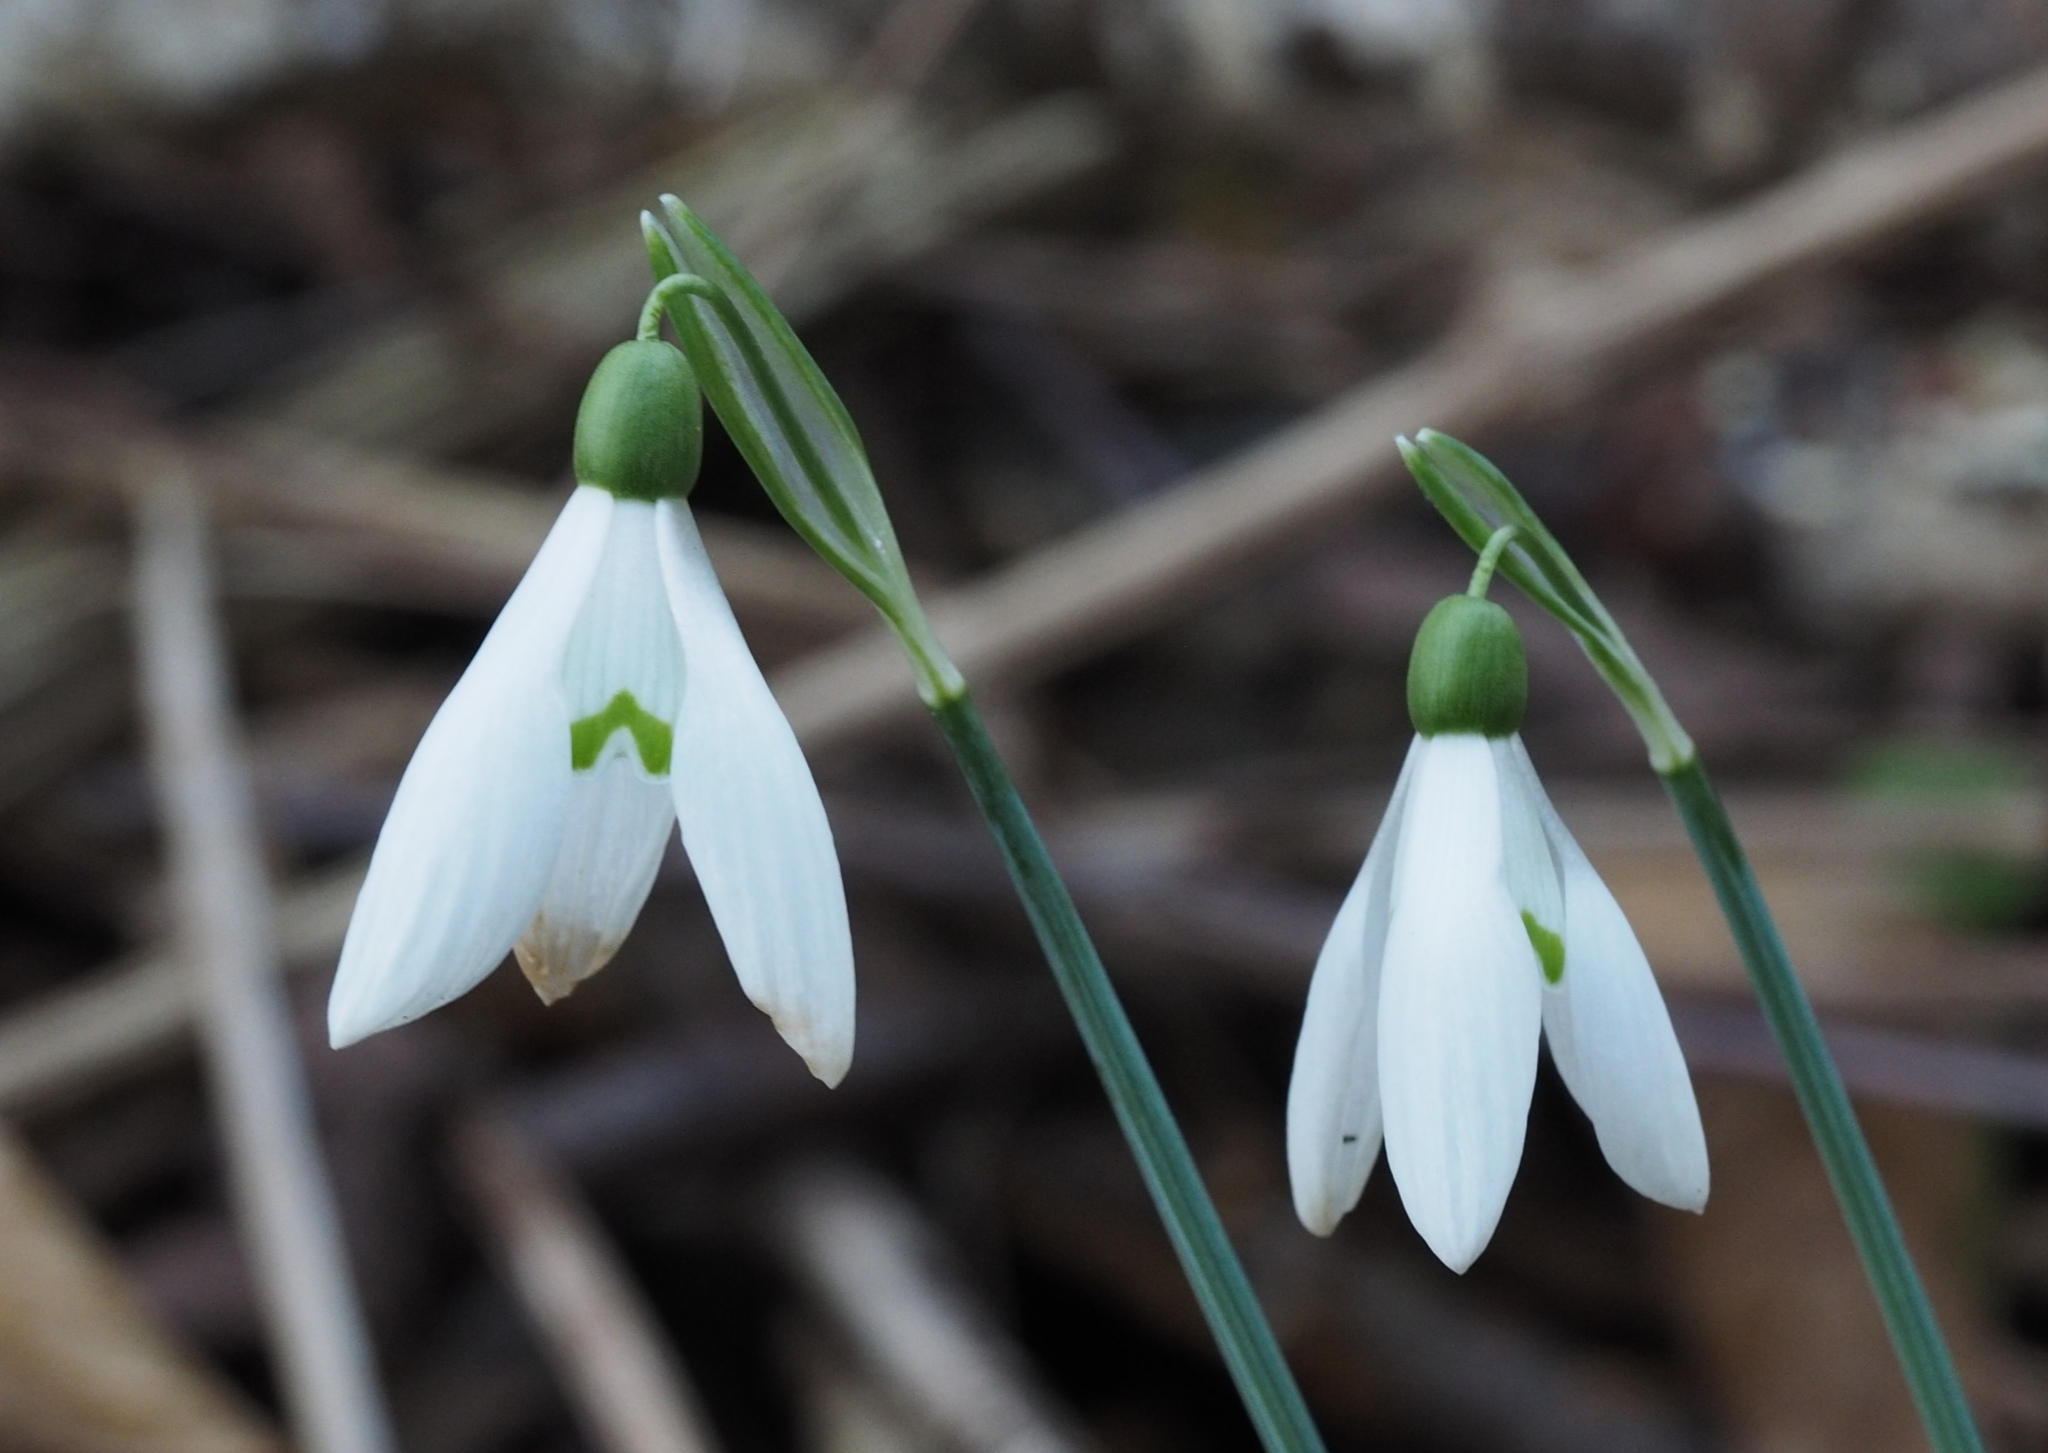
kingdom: Plantae
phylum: Tracheophyta
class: Liliopsida
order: Asparagales
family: Amaryllidaceae
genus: Galanthus
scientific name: Galanthus nivalis
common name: Snowdrop
